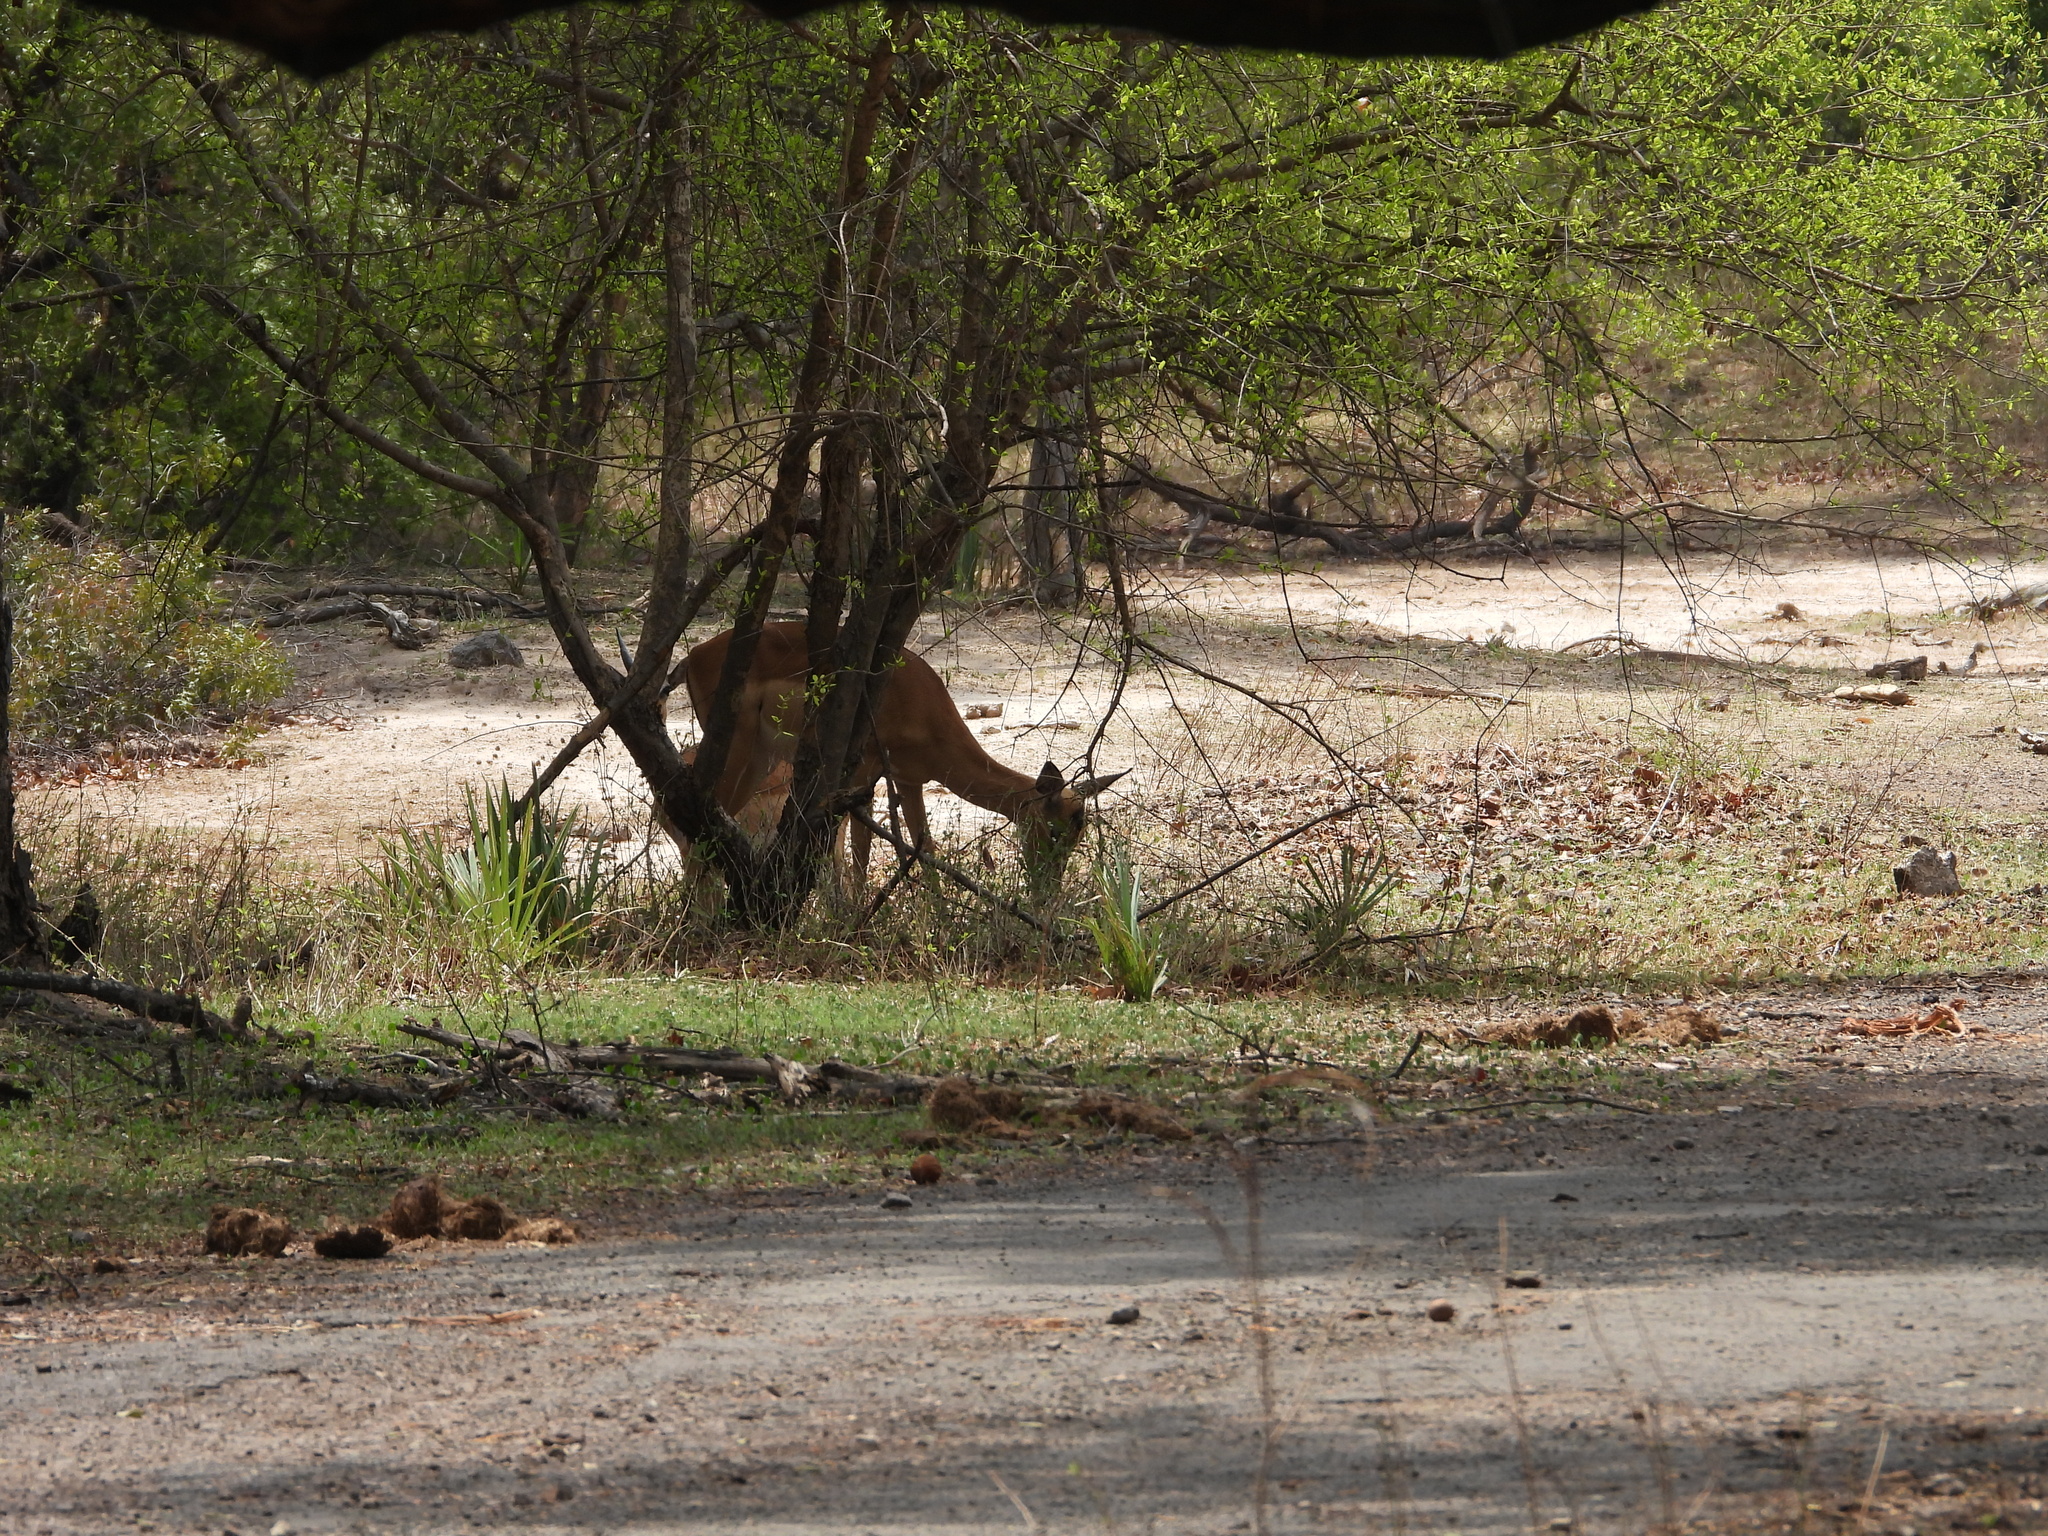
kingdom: Animalia
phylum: Chordata
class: Mammalia
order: Artiodactyla
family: Bovidae
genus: Aepyceros
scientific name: Aepyceros melampus
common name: Impala
